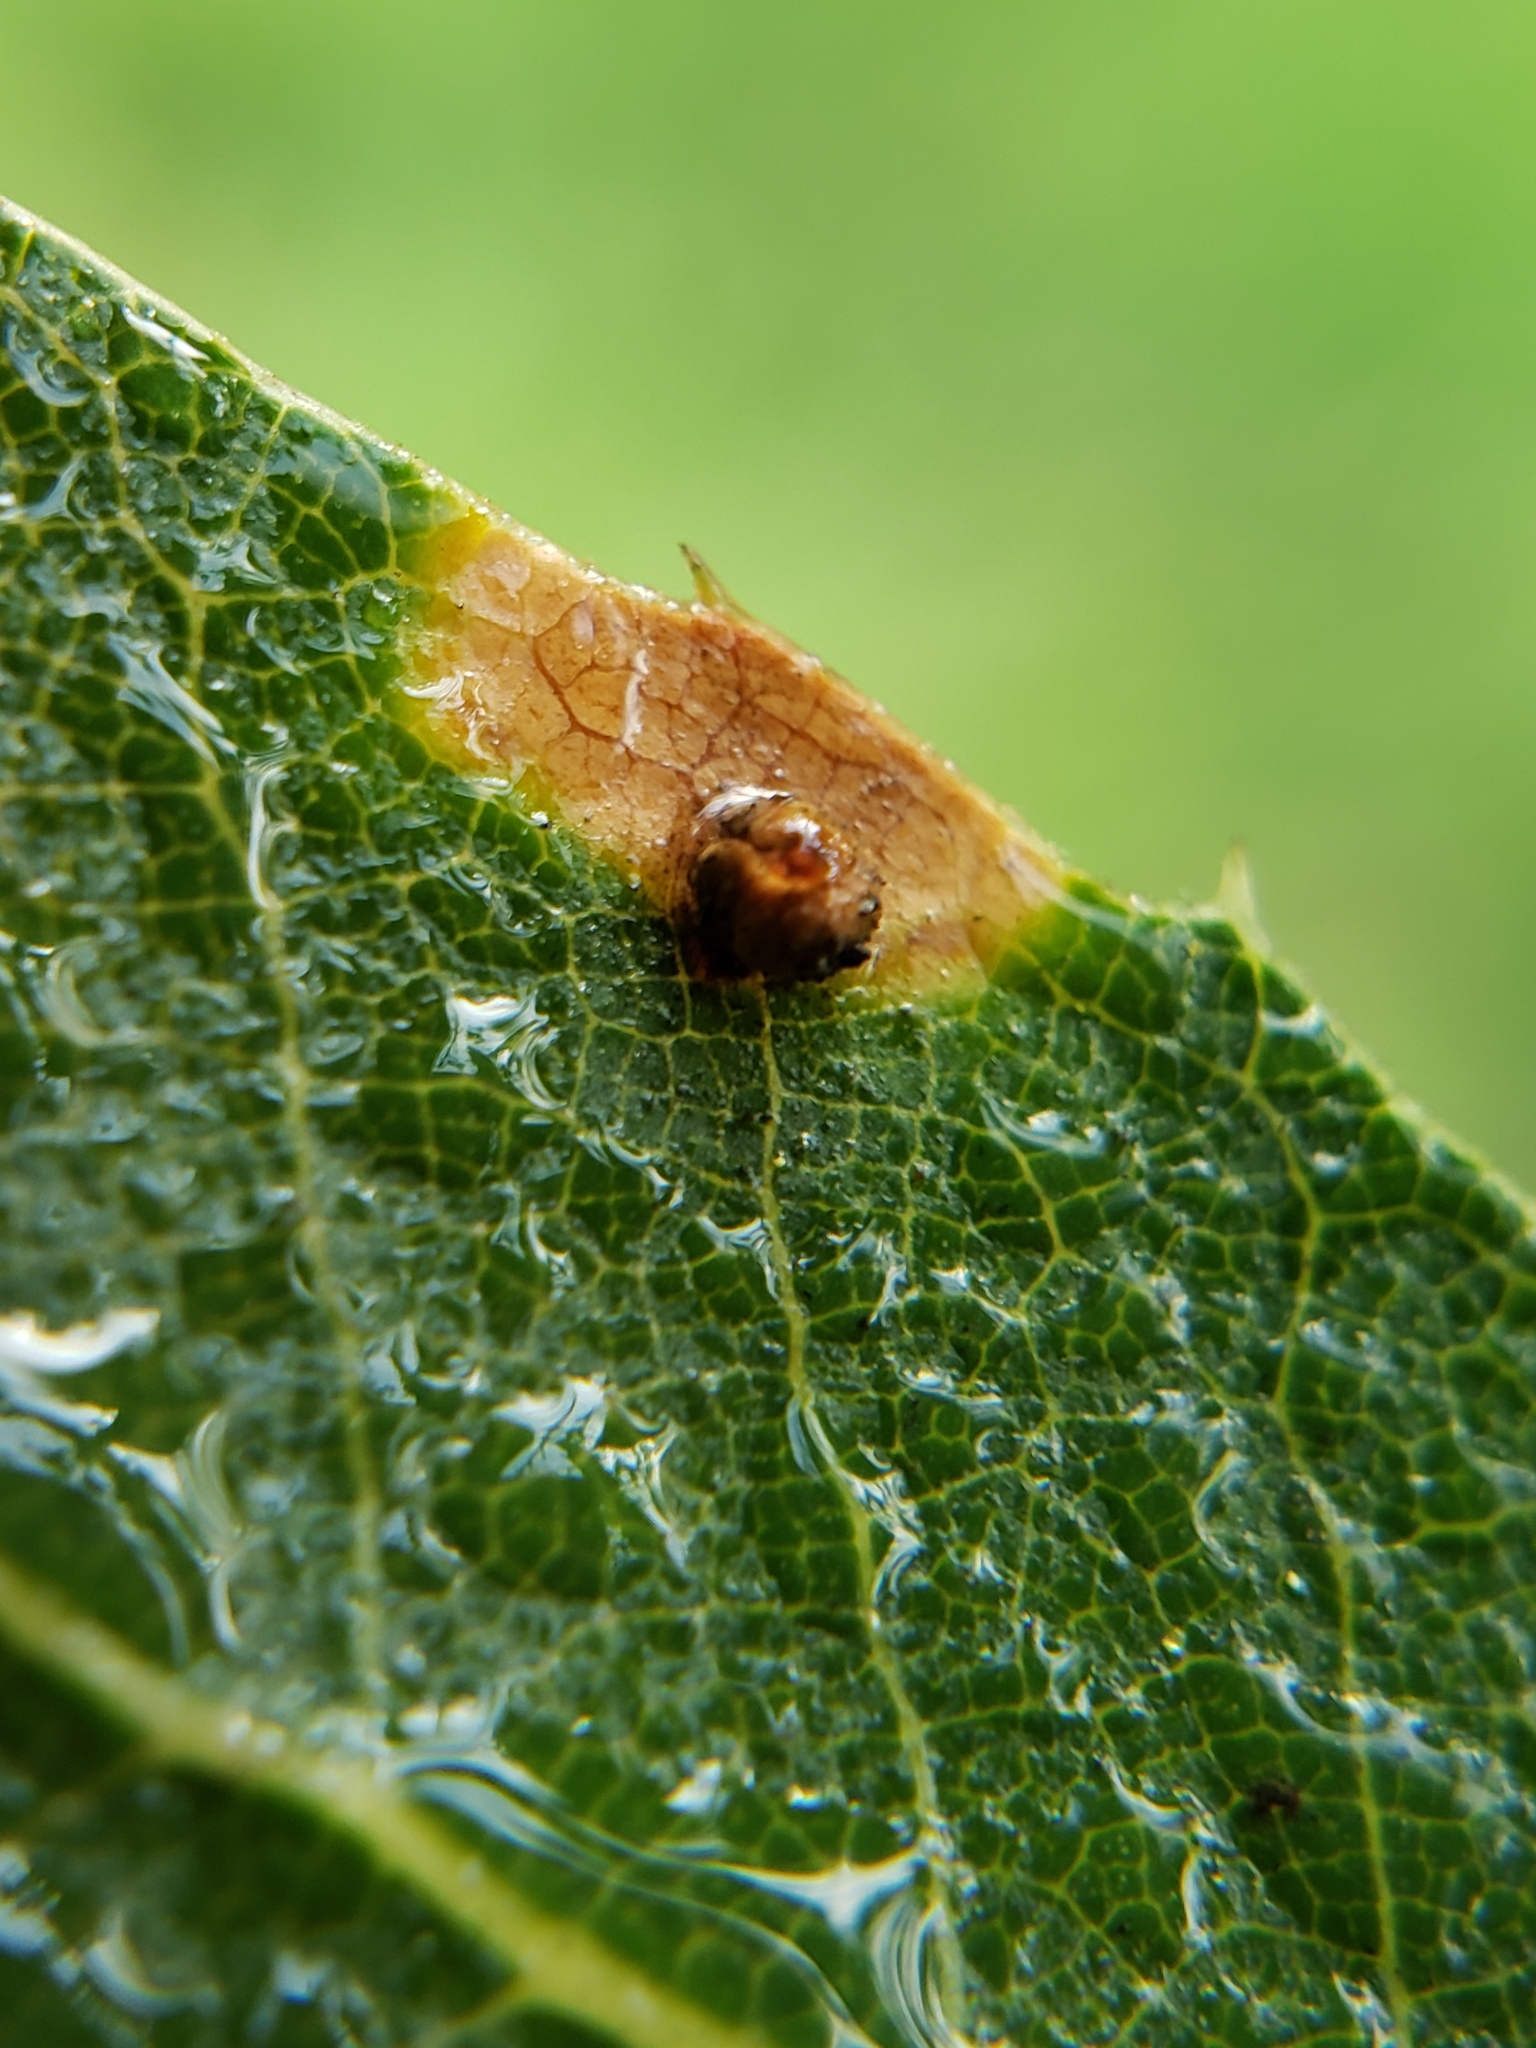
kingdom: Animalia
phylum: Arthropoda
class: Insecta
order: Hymenoptera
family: Cynipidae
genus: Dryocosmus
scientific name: Dryocosmus
